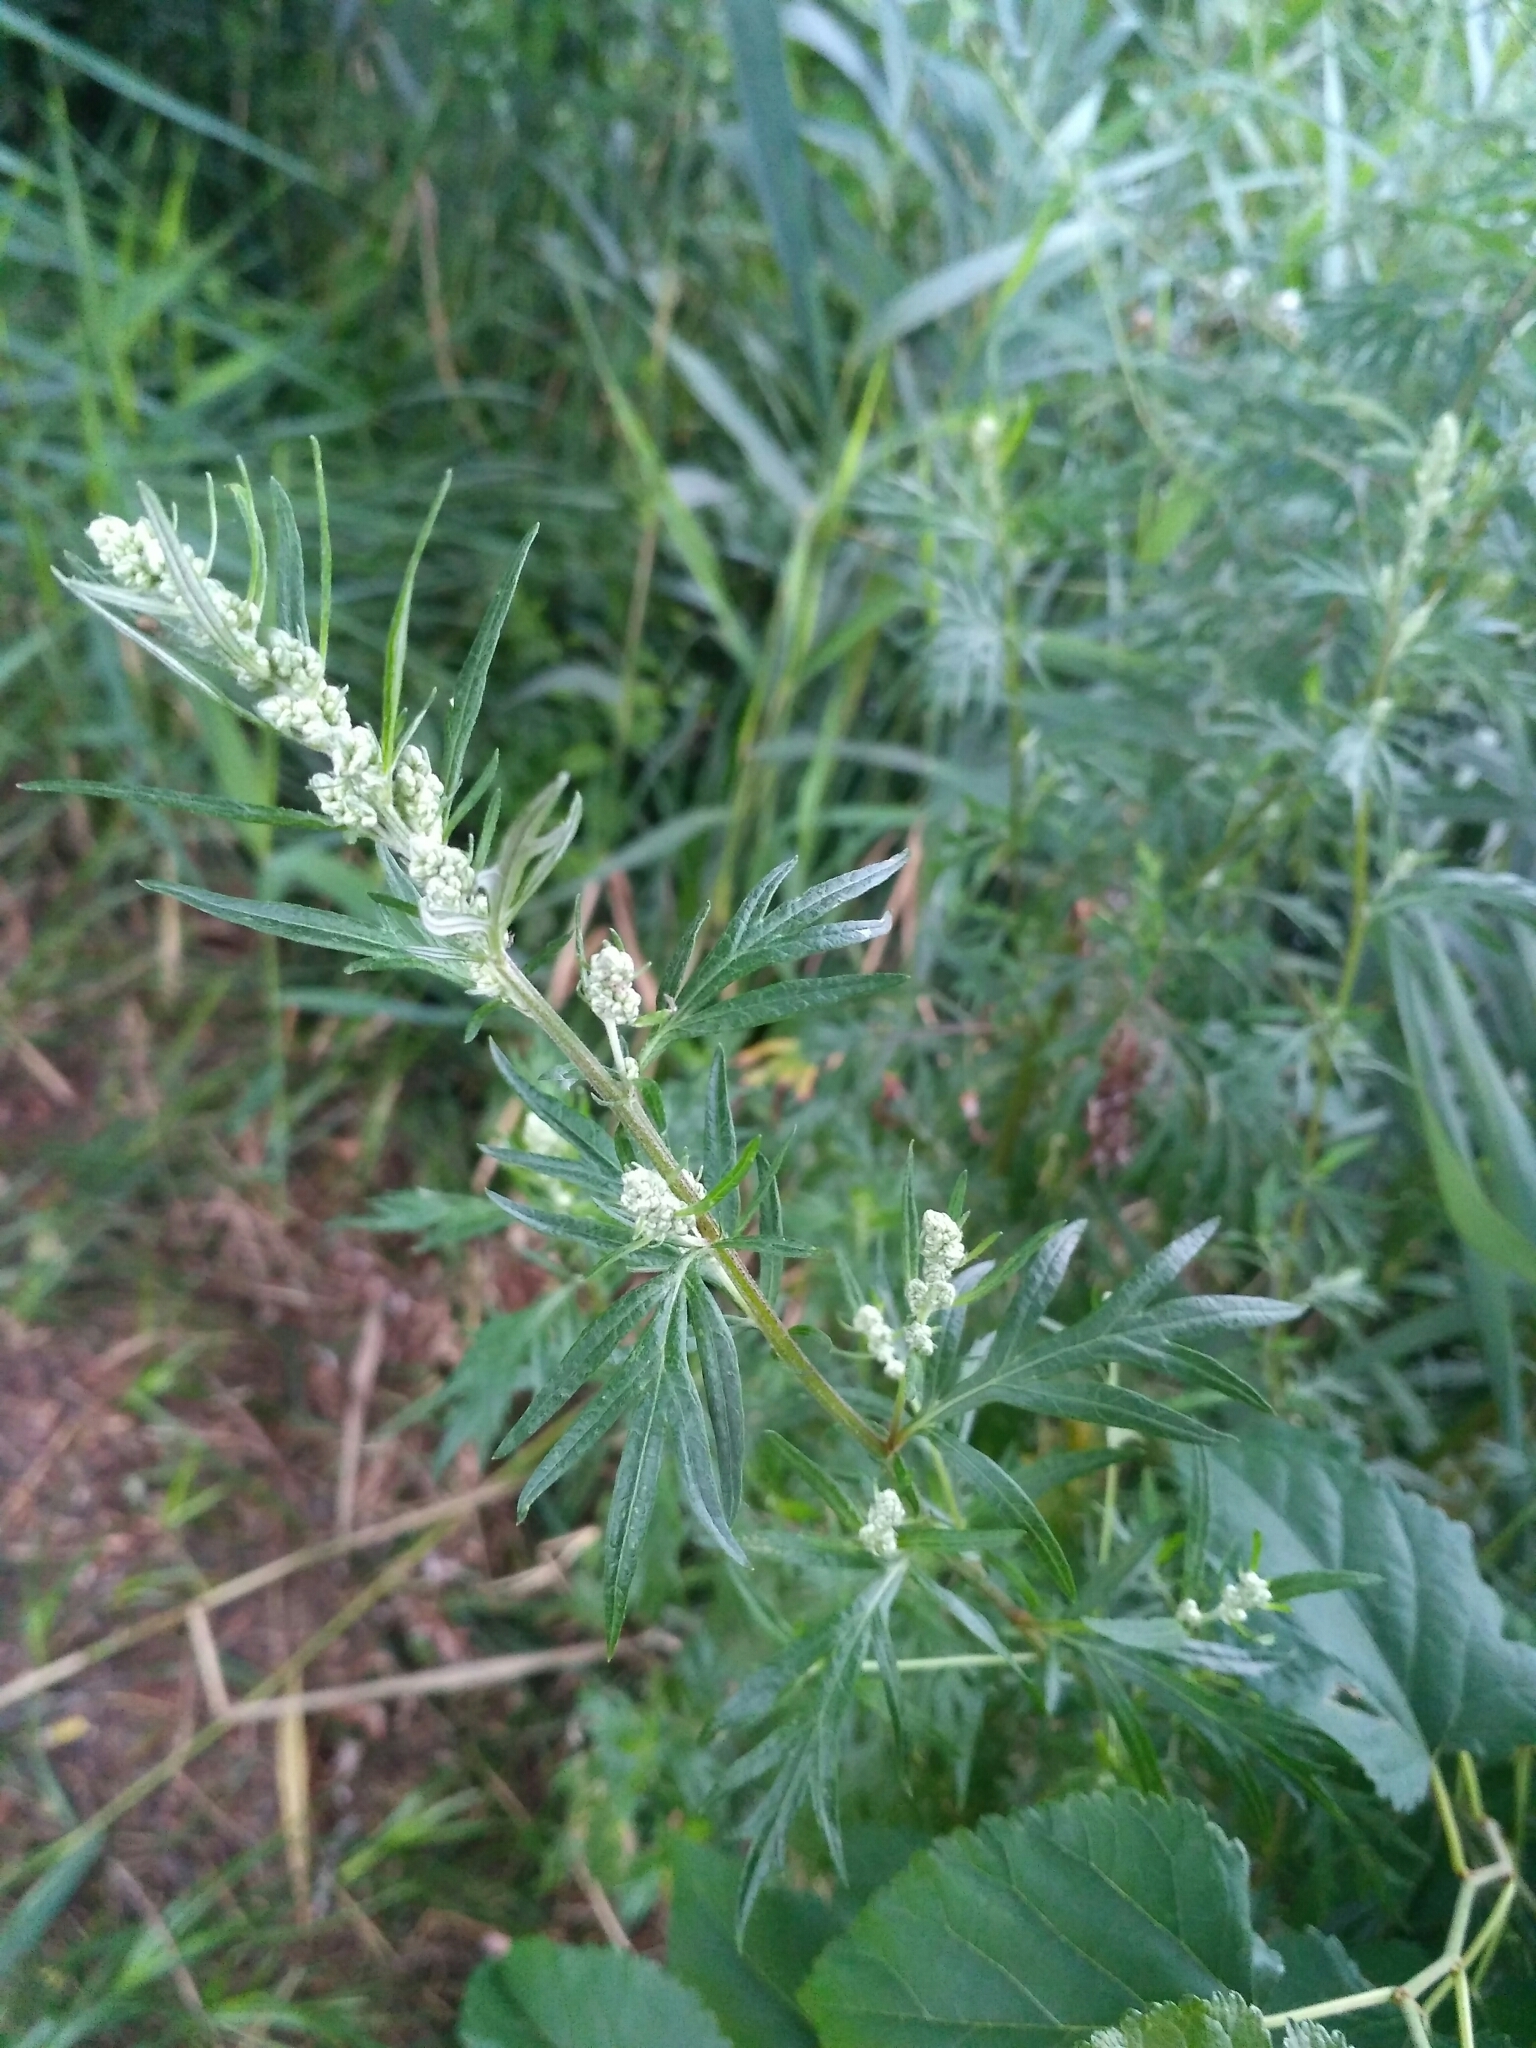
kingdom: Plantae
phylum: Tracheophyta
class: Magnoliopsida
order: Asterales
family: Asteraceae
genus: Artemisia
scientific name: Artemisia vulgaris
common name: Mugwort
